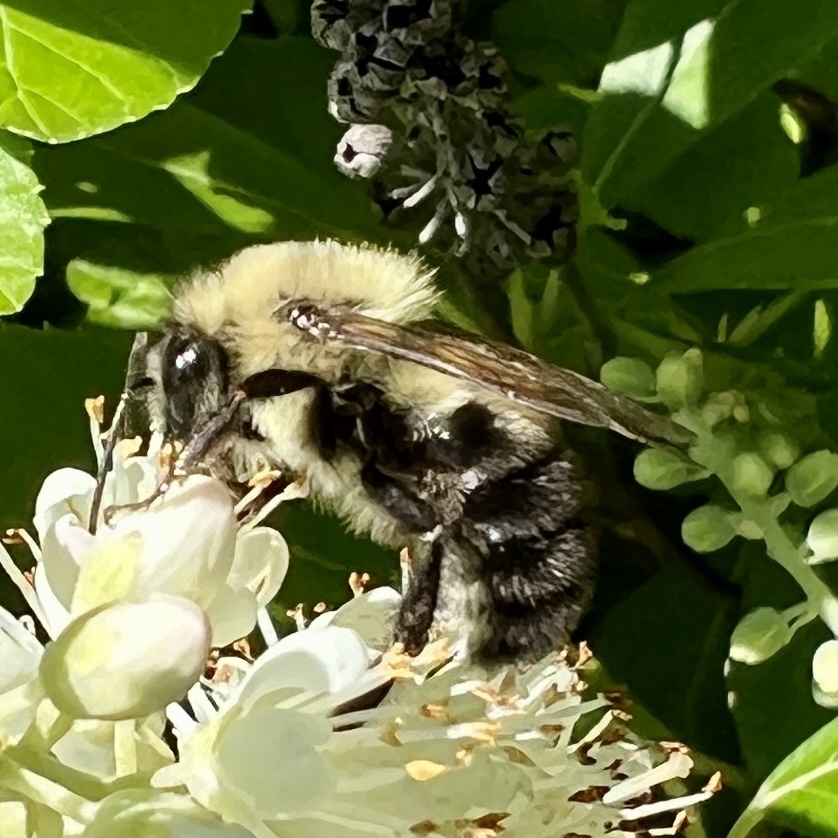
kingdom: Animalia
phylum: Arthropoda
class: Insecta
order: Hymenoptera
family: Apidae
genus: Bombus
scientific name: Bombus bimaculatus
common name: Two-spotted bumble bee
